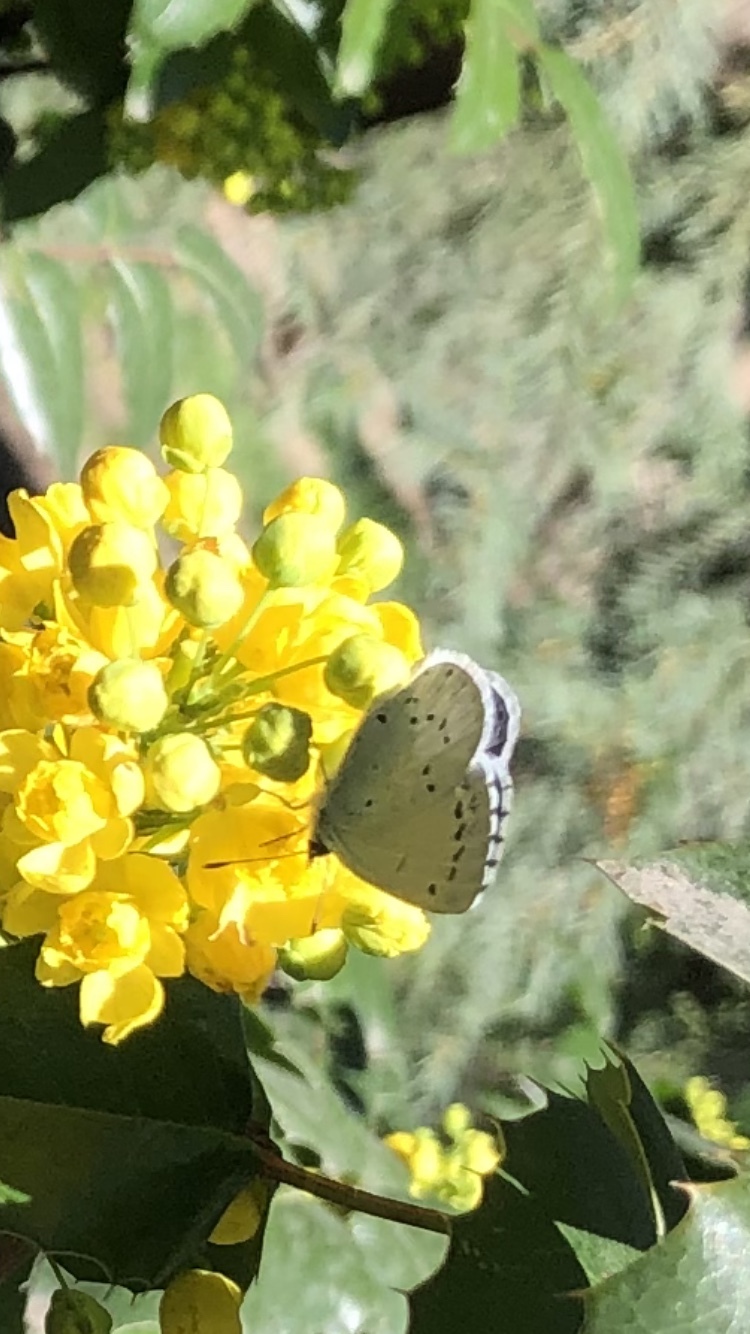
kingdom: Animalia
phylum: Arthropoda
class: Insecta
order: Lepidoptera
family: Lycaenidae
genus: Celastrina
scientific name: Celastrina argiolus
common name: Holly blue
